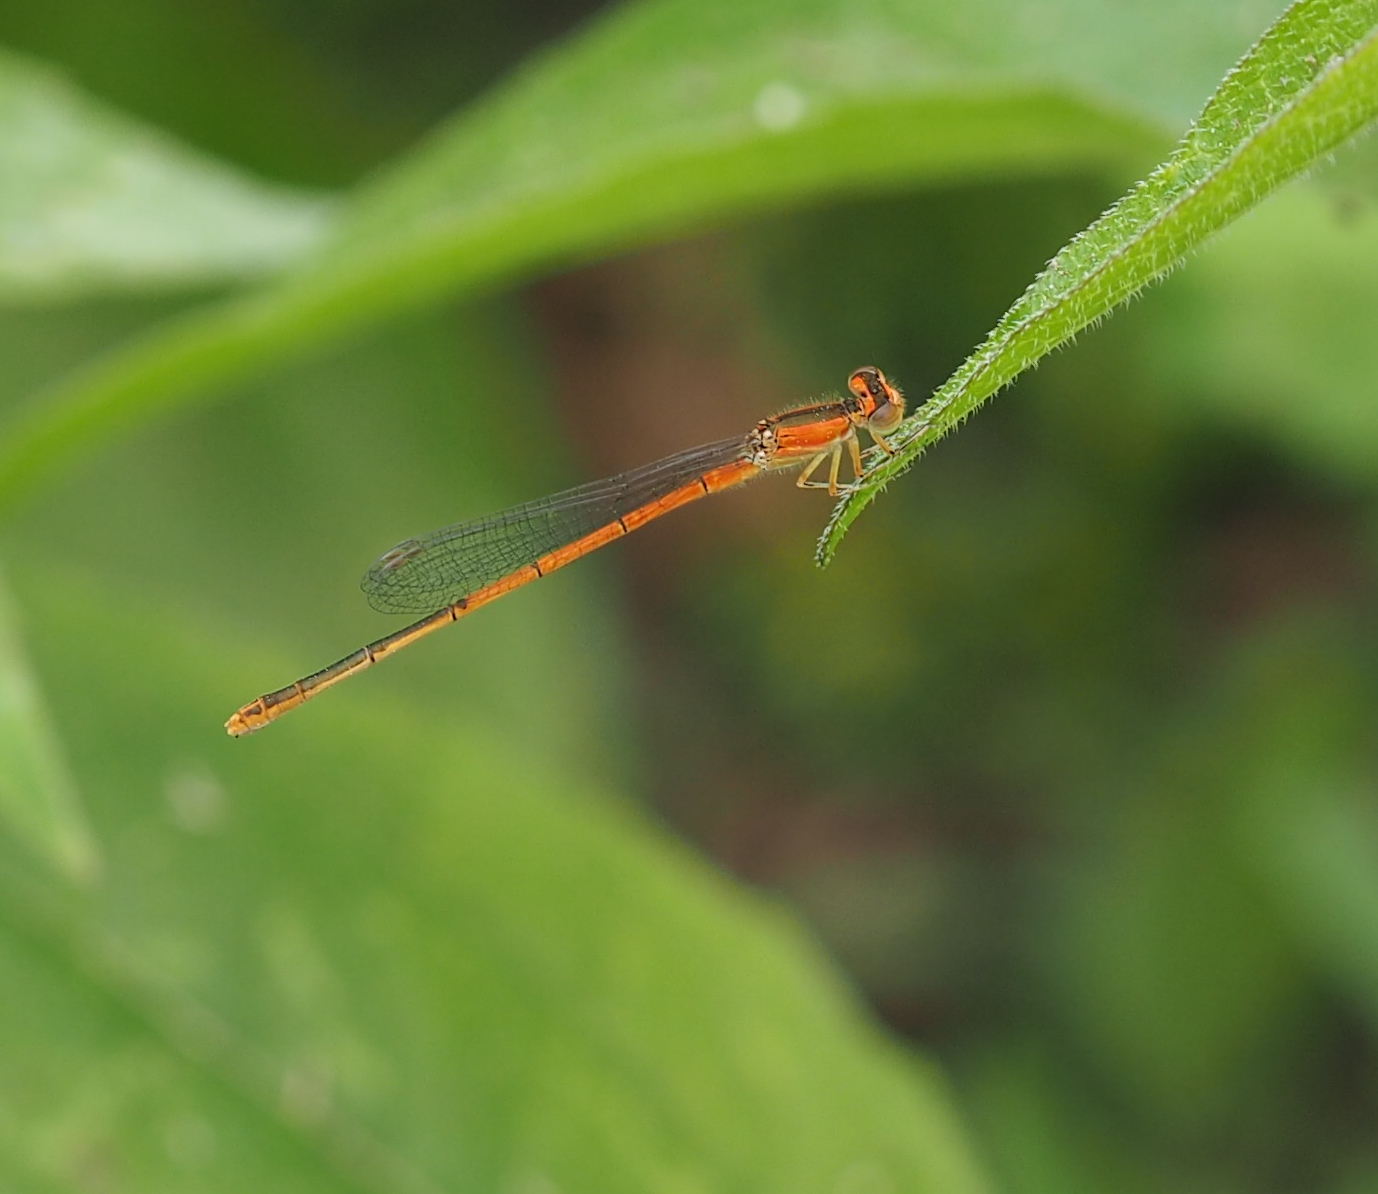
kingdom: Animalia
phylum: Arthropoda
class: Insecta
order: Odonata
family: Coenagrionidae
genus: Ischnura
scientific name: Ischnura hastata
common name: Citrine forktail
